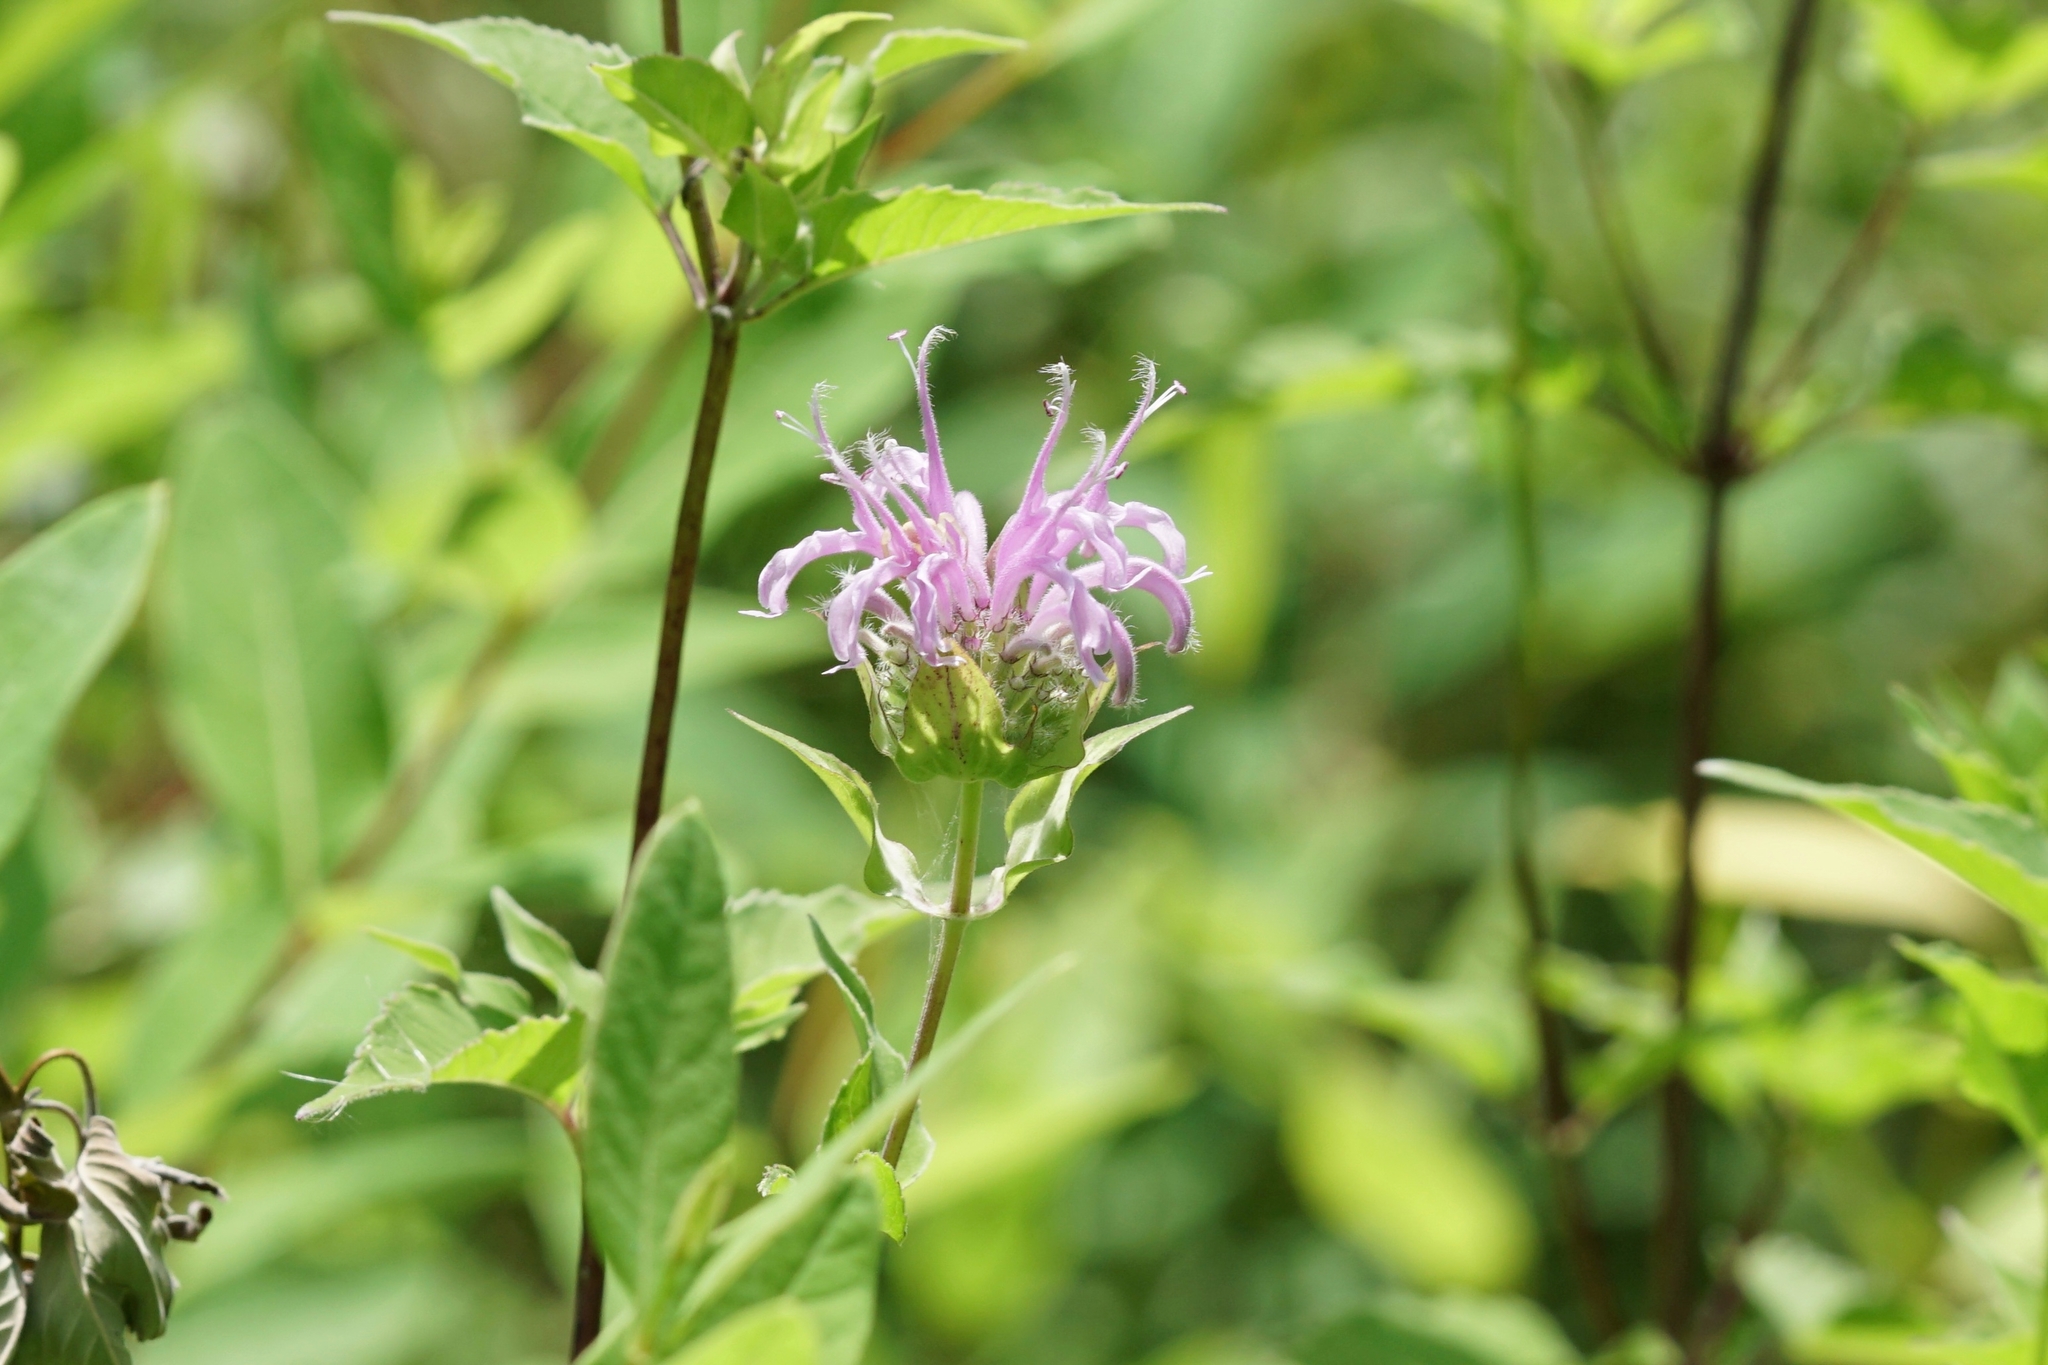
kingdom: Plantae
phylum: Tracheophyta
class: Magnoliopsida
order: Lamiales
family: Lamiaceae
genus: Monarda
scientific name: Monarda fistulosa
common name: Purple beebalm
